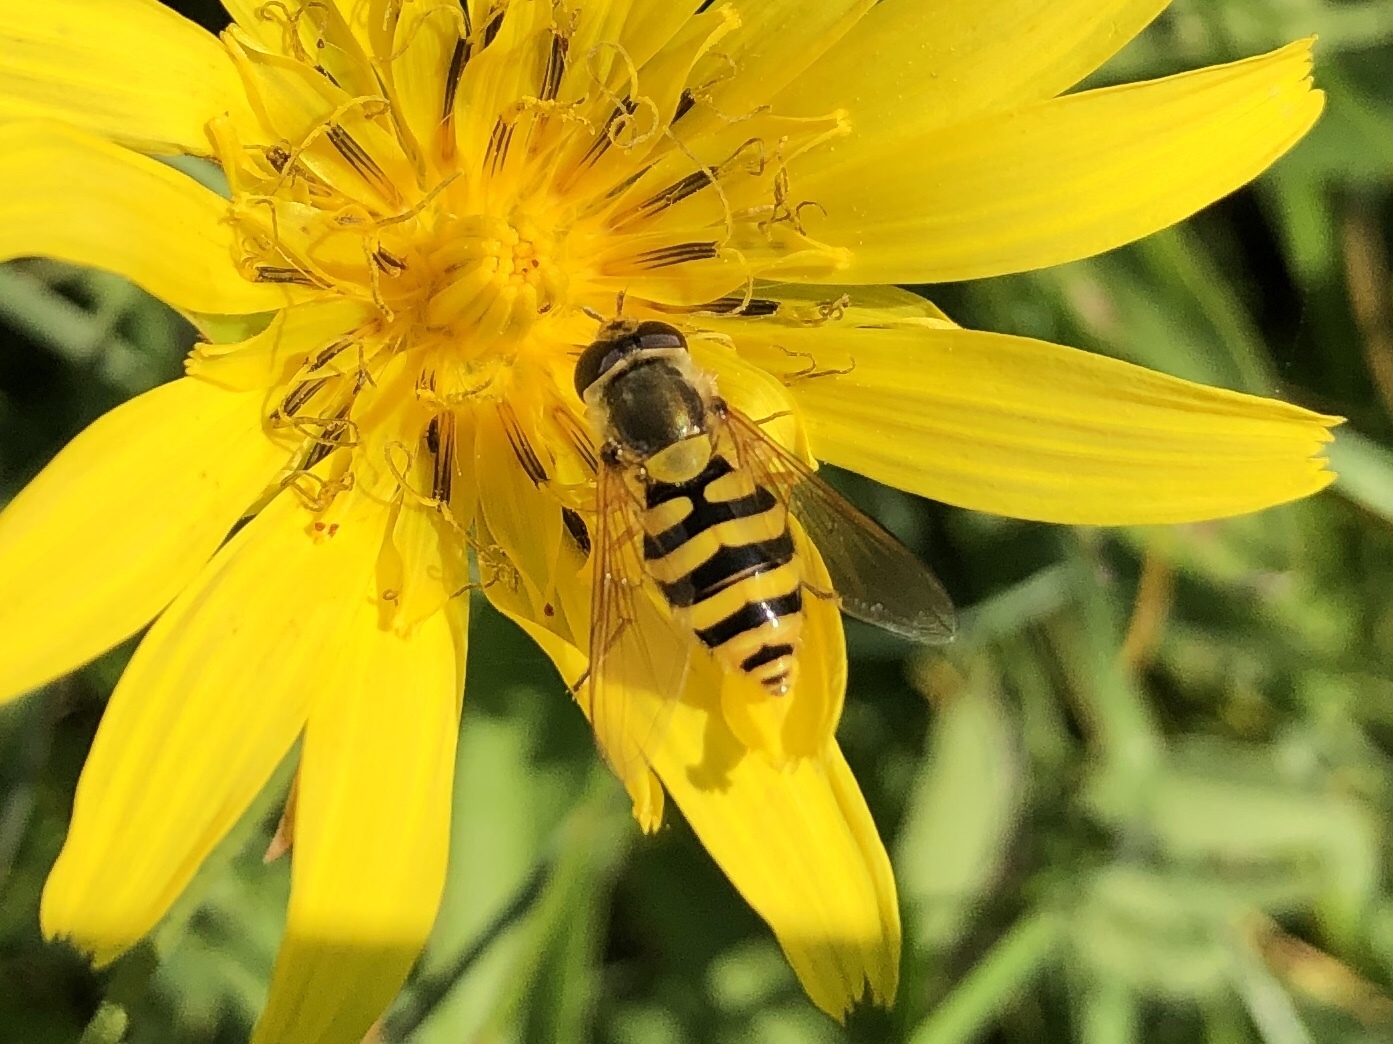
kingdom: Animalia
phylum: Arthropoda
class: Insecta
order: Diptera
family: Syrphidae
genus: Syrphus
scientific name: Syrphus
